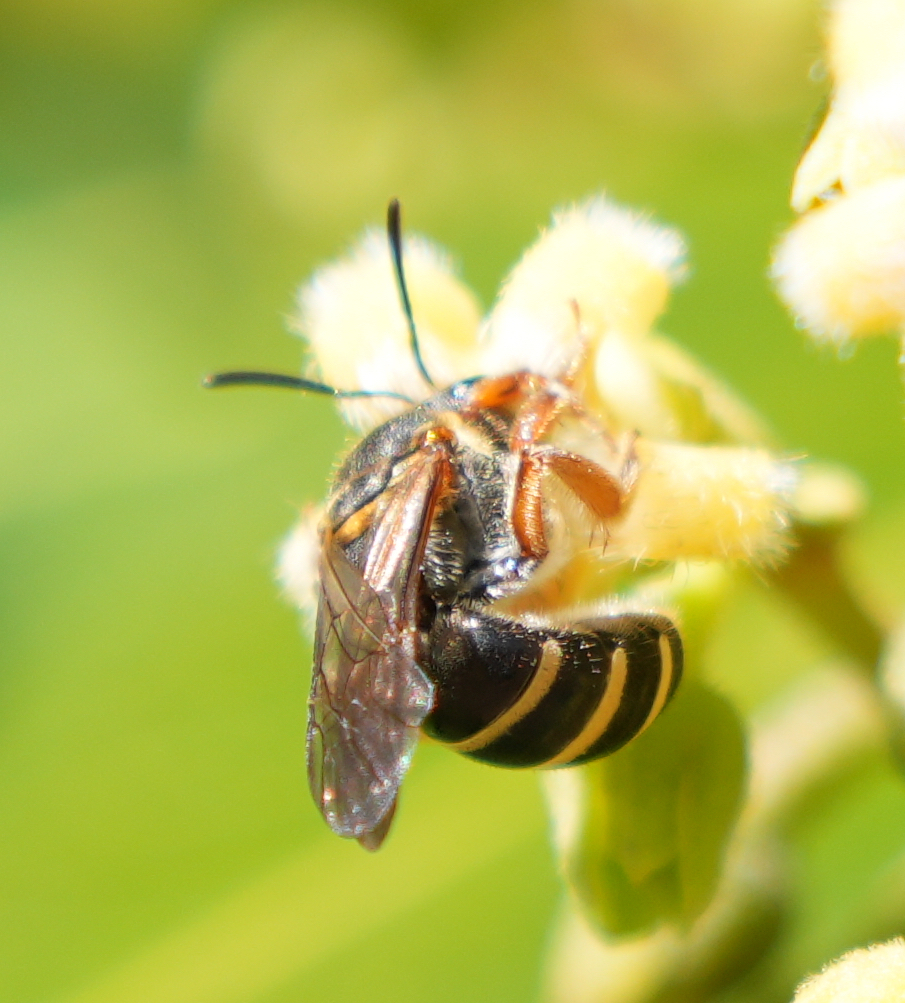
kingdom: Animalia
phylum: Arthropoda
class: Insecta
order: Hymenoptera
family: Halictidae
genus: Lasioglossum
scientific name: Lasioglossum bicingulatum
